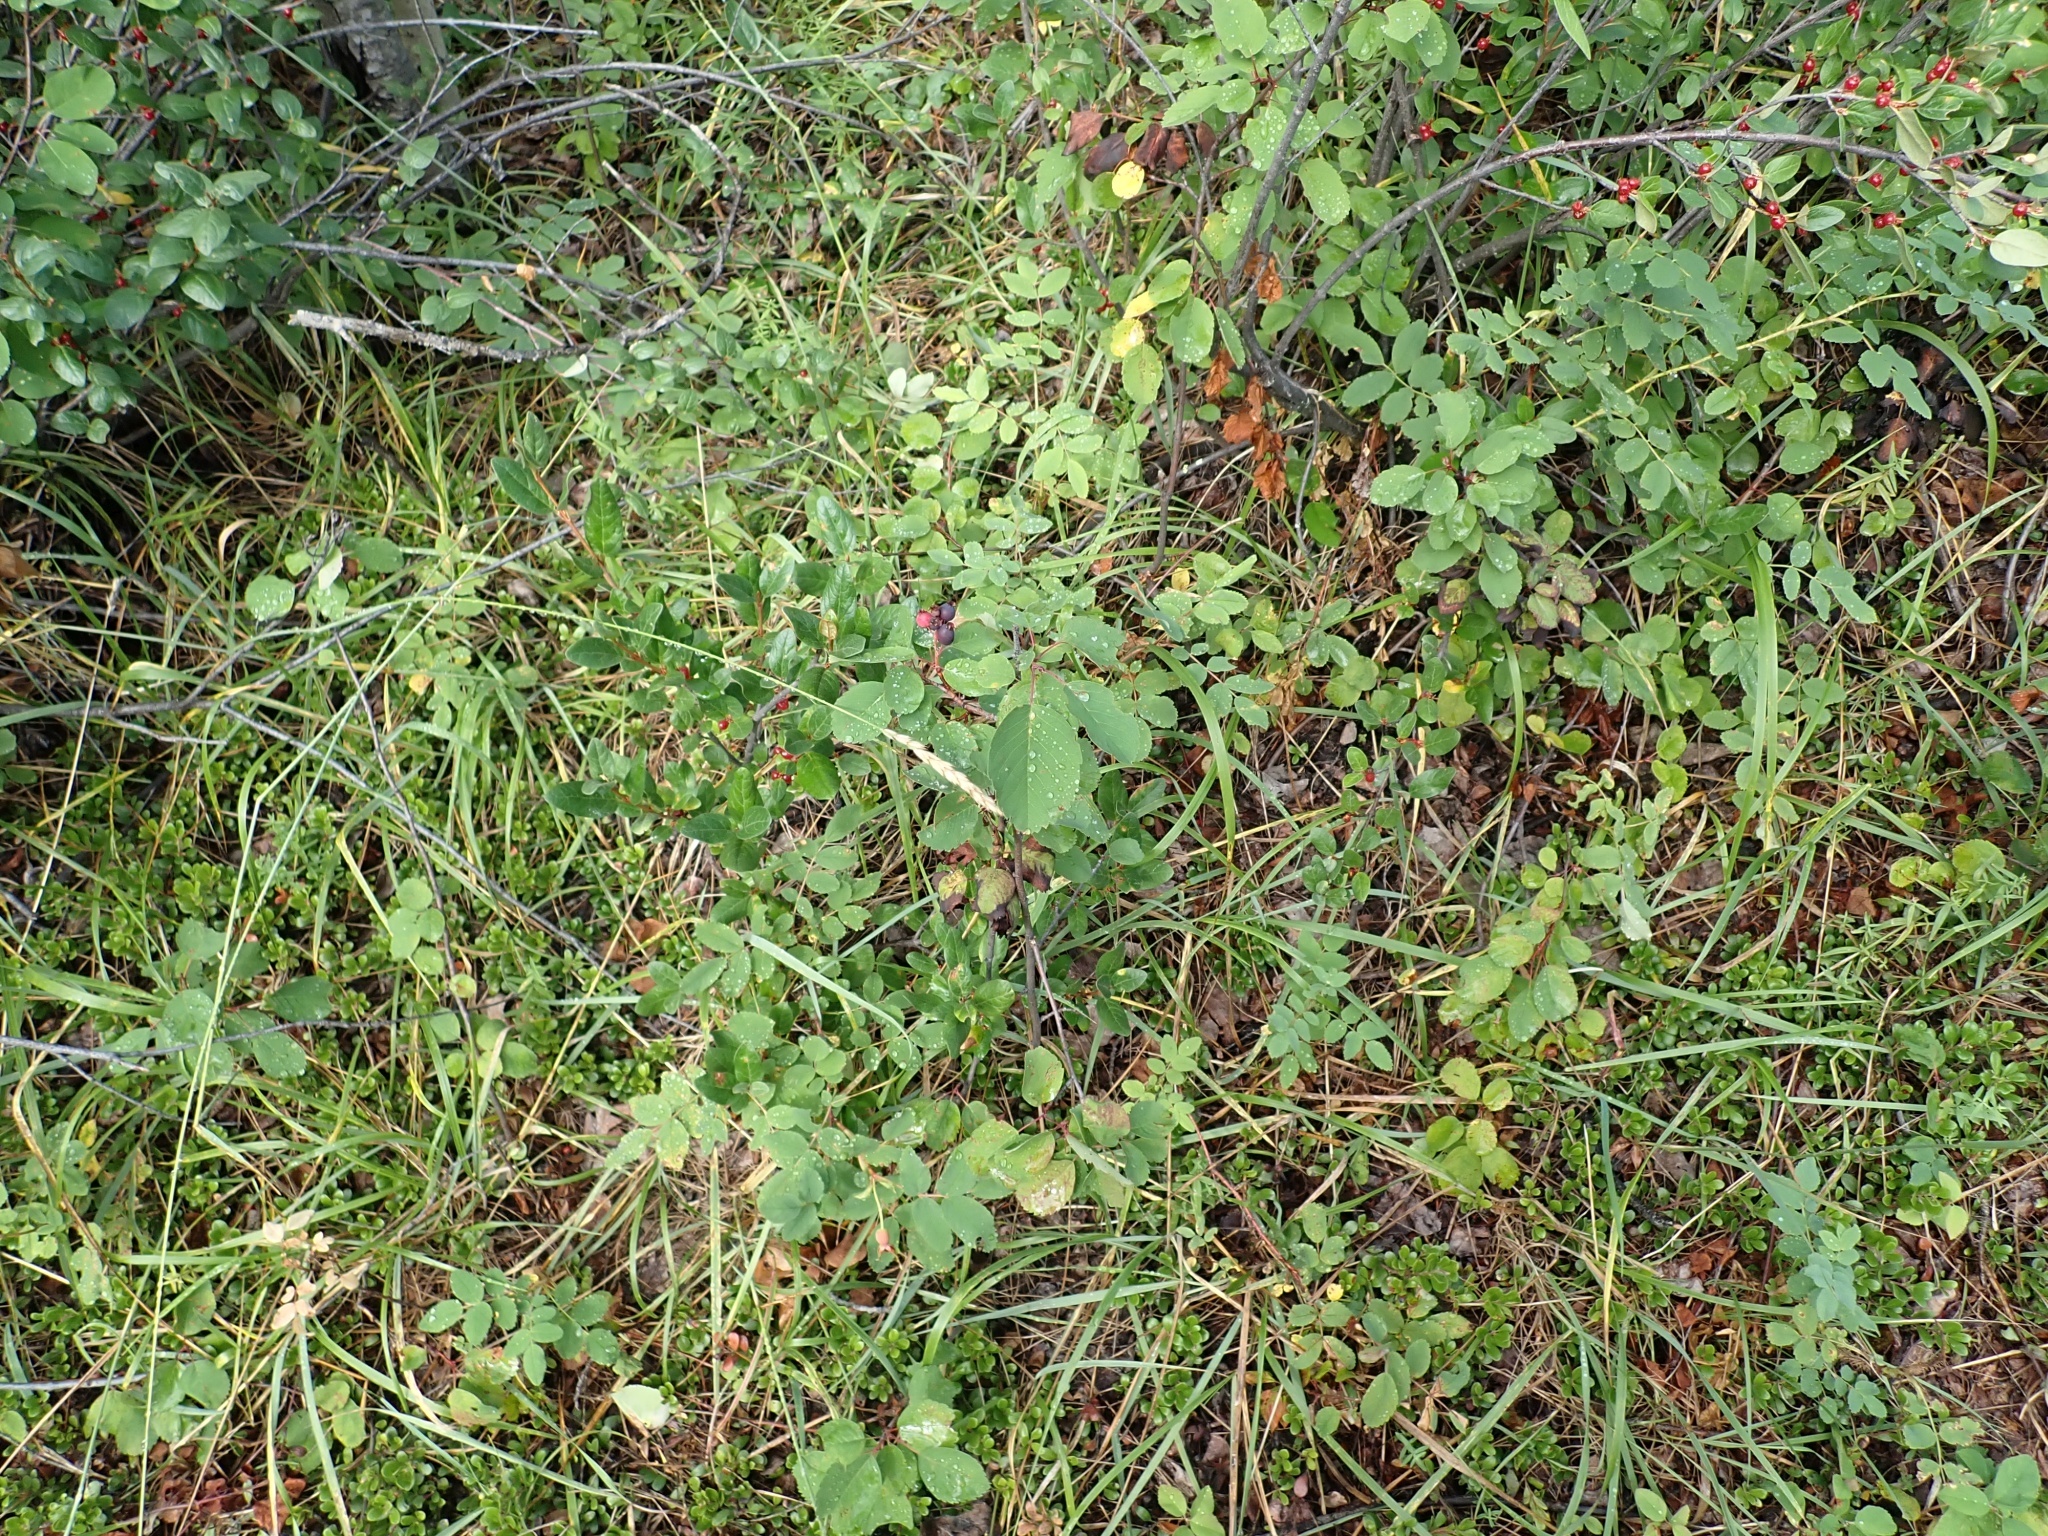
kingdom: Plantae
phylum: Tracheophyta
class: Magnoliopsida
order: Rosales
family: Rosaceae
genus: Amelanchier
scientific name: Amelanchier alnifolia
